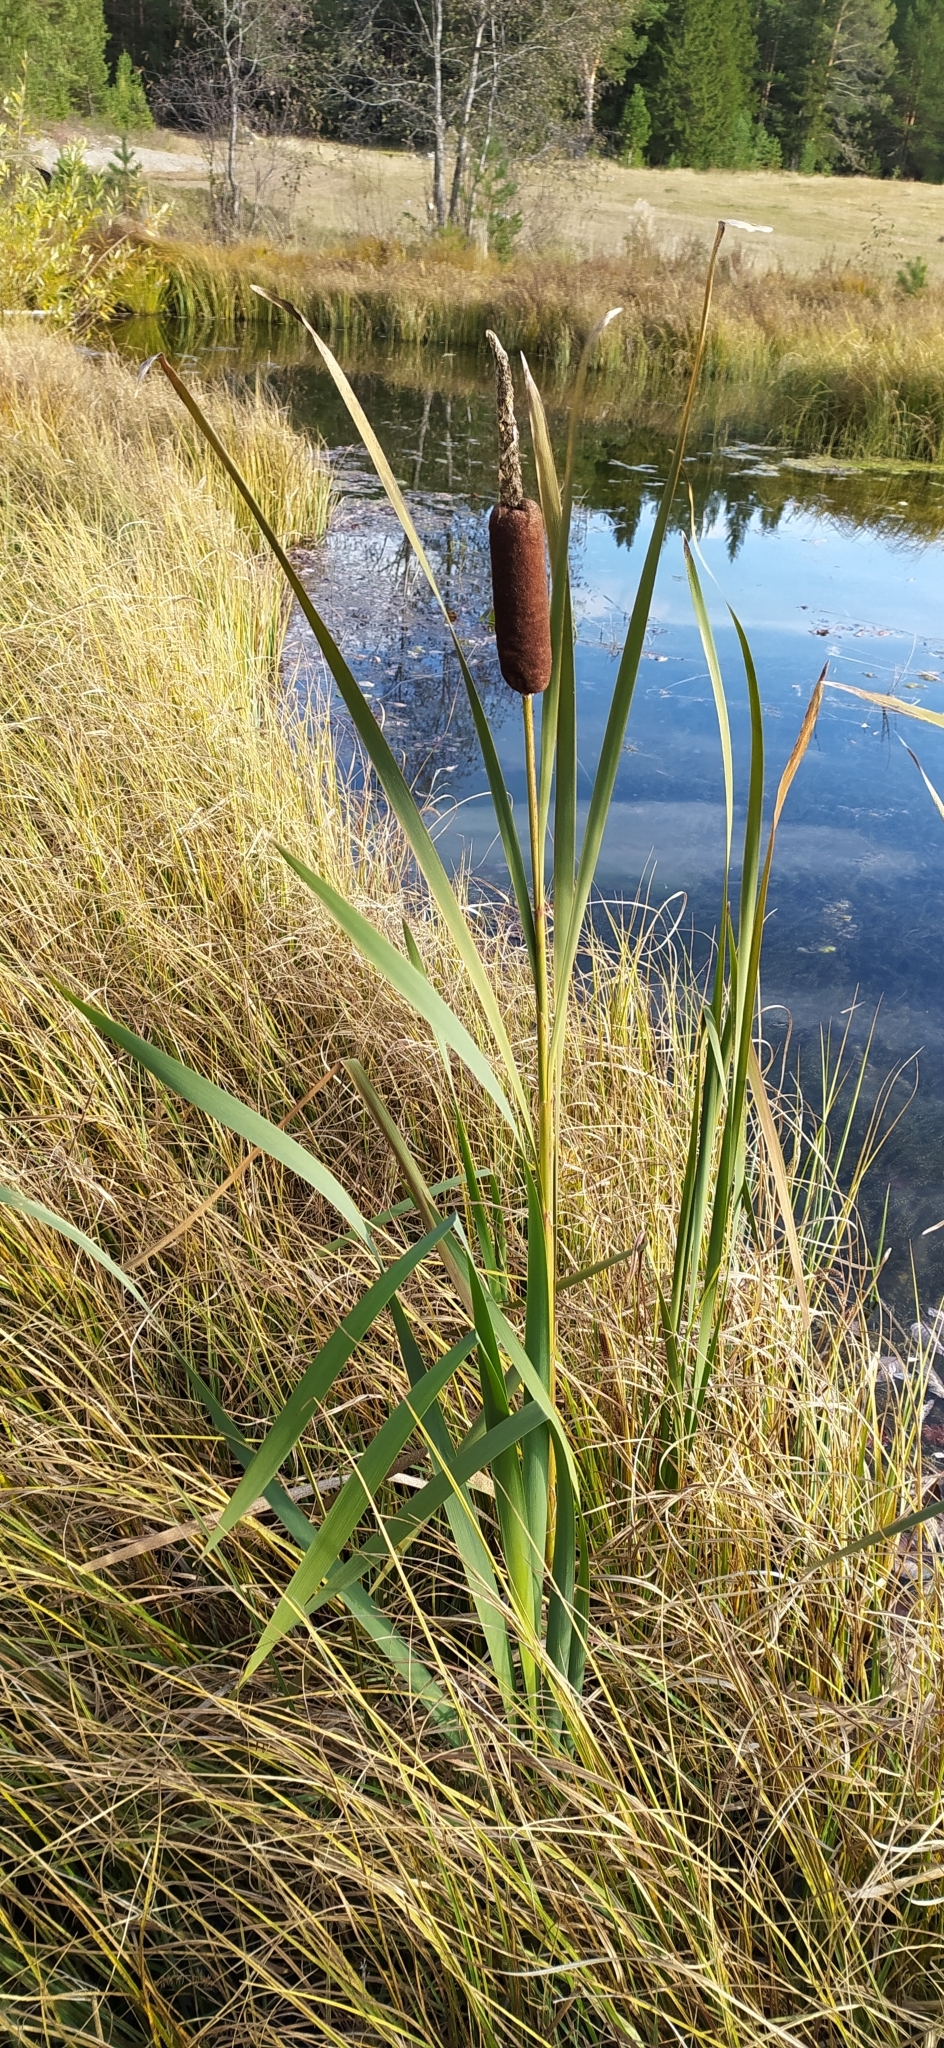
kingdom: Plantae
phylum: Tracheophyta
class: Liliopsida
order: Poales
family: Typhaceae
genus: Typha
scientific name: Typha latifolia
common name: Broadleaf cattail
